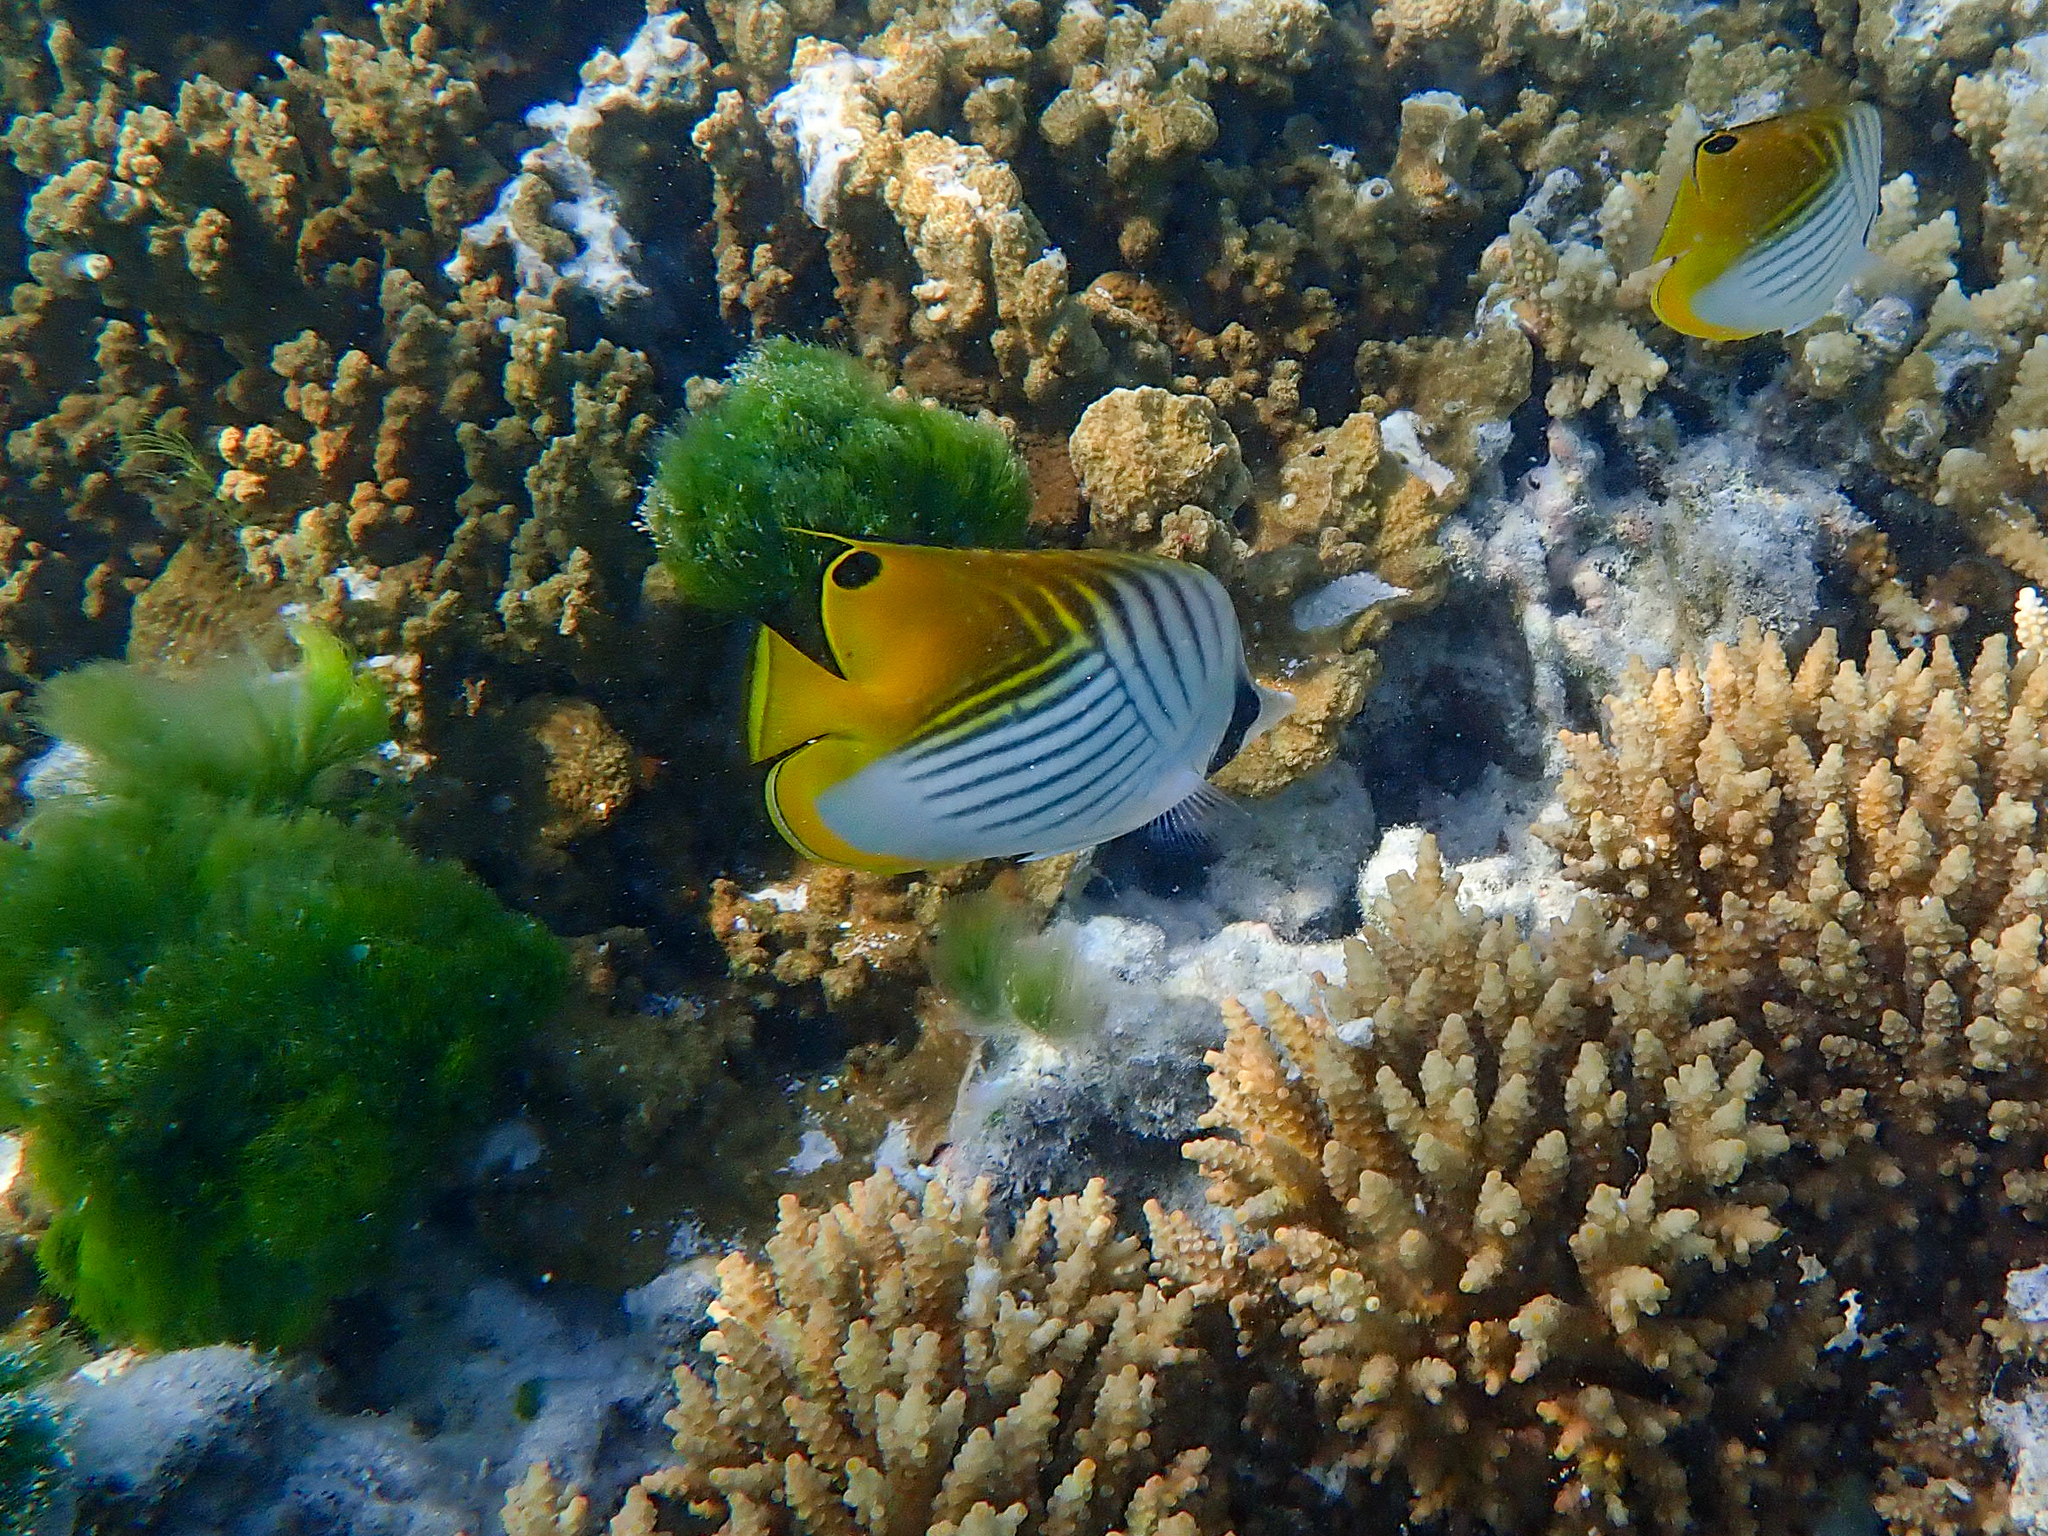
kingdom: Animalia
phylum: Chordata
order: Perciformes
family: Chaetodontidae
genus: Chaetodon
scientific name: Chaetodon auriga
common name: Threadfin butterflyfish
